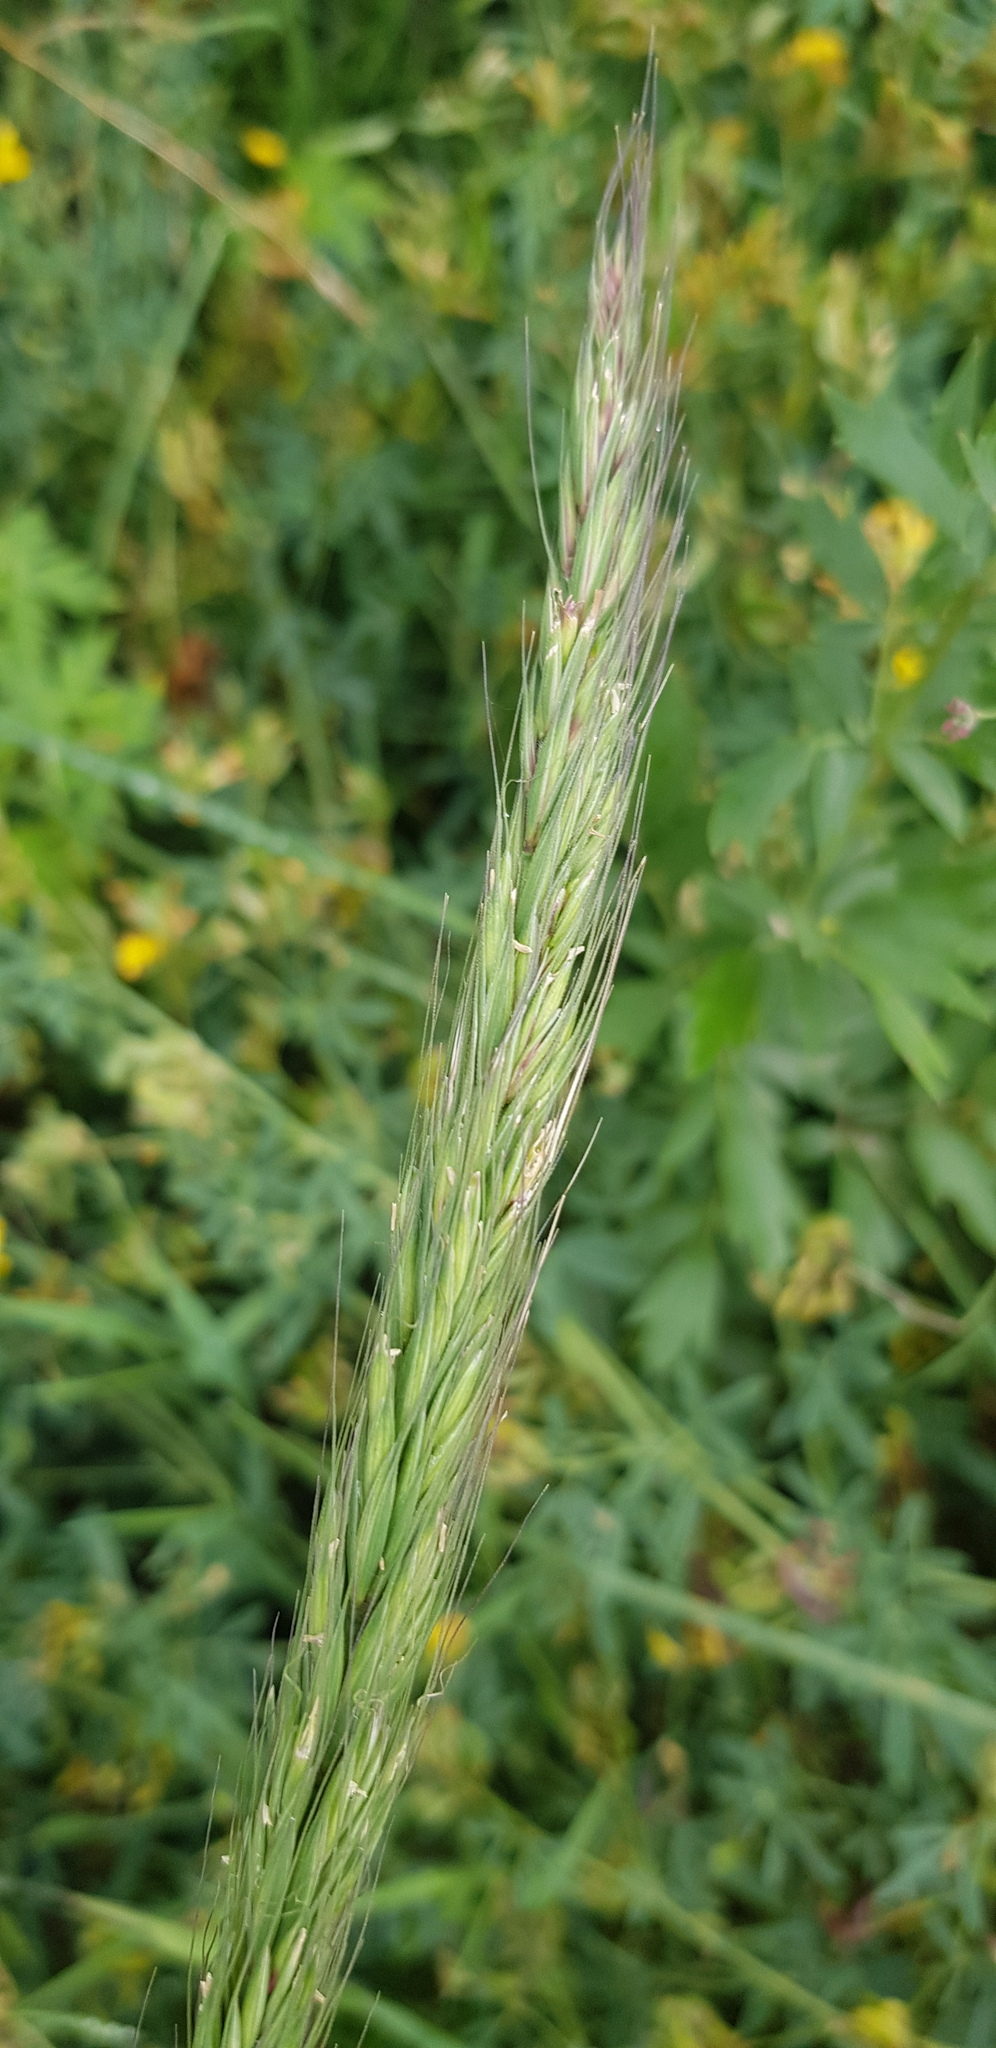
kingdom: Plantae
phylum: Tracheophyta
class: Liliopsida
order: Poales
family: Poaceae
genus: Leymus
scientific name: Leymus chinensis
